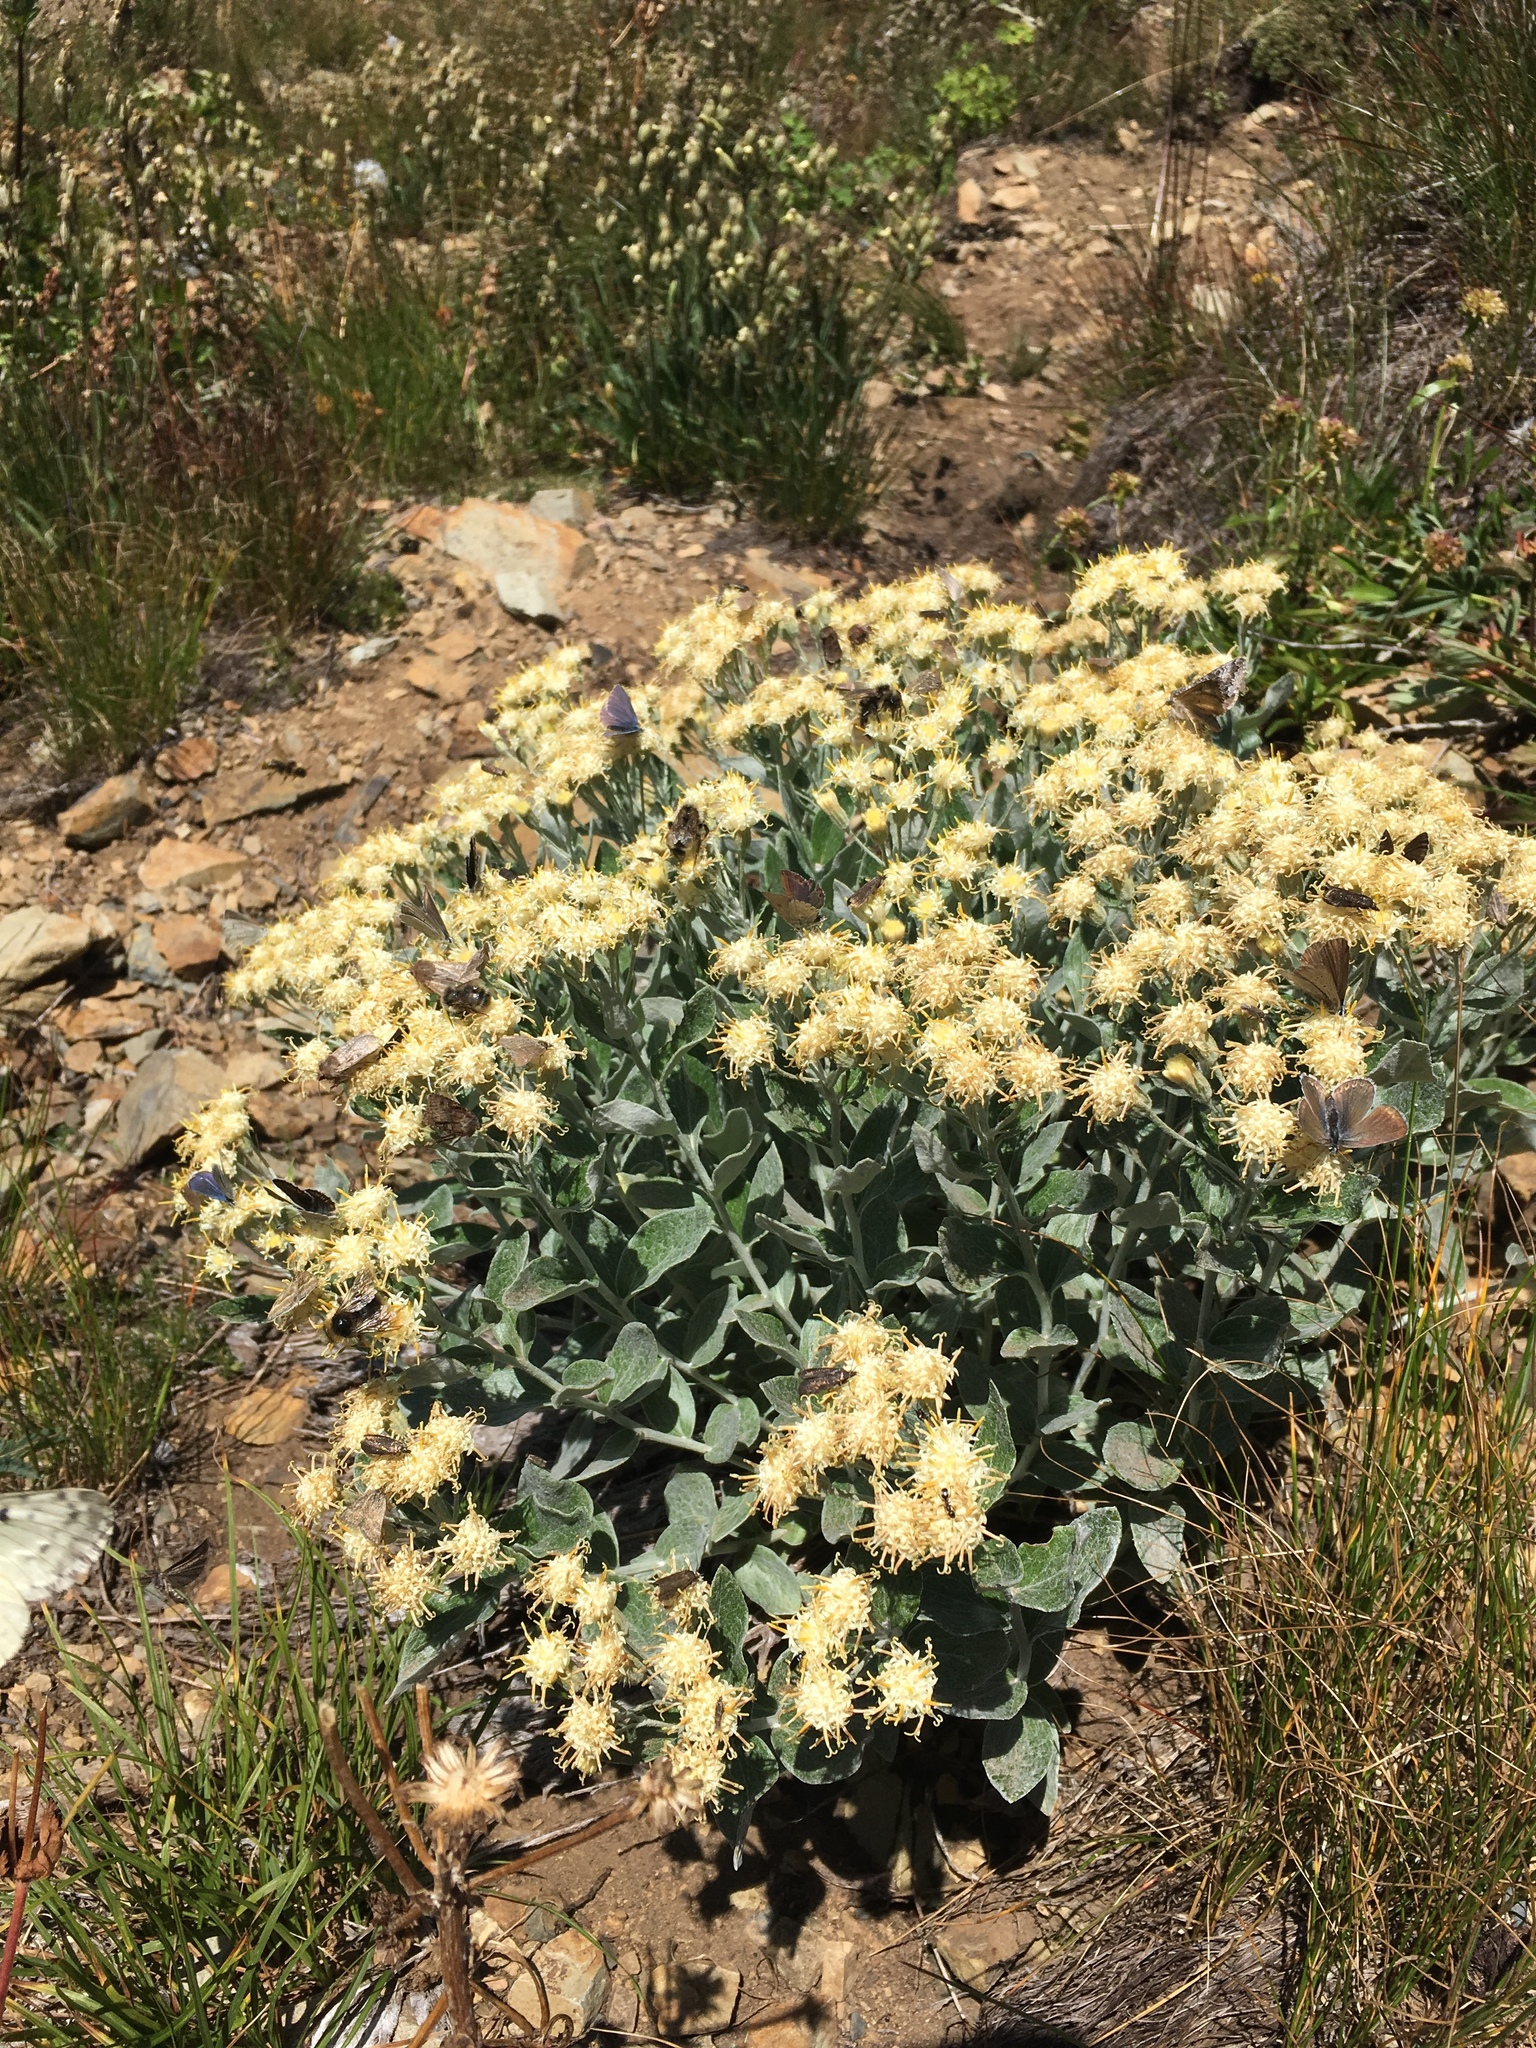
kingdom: Plantae
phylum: Tracheophyta
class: Magnoliopsida
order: Asterales
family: Asteraceae
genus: Luina
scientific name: Luina hypoleuca
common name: Little-leaved luina
